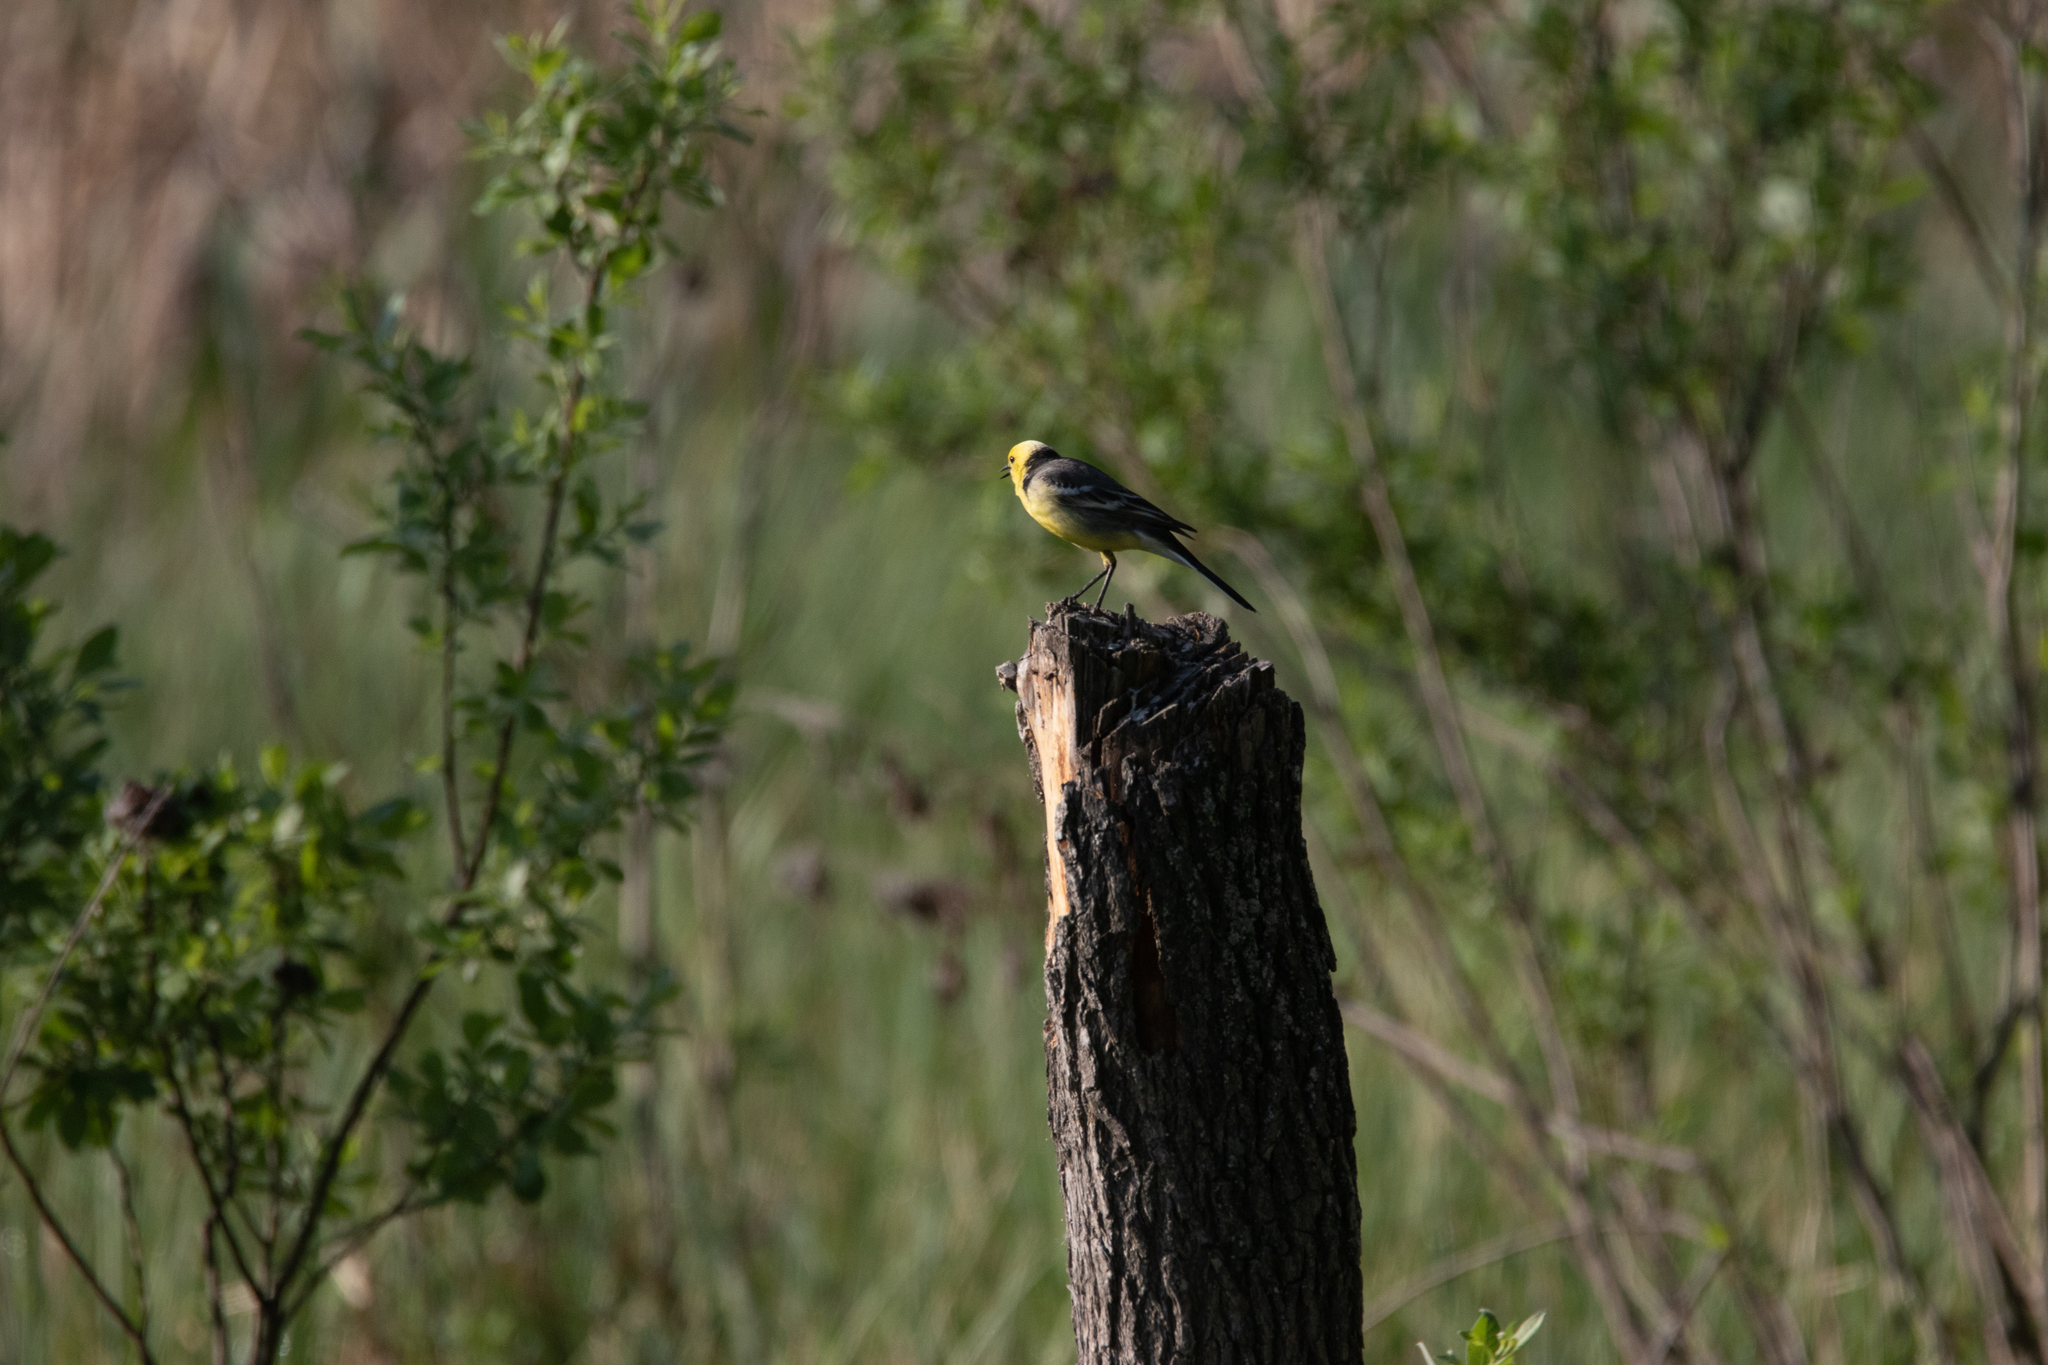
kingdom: Animalia
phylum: Chordata
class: Aves
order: Passeriformes
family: Motacillidae
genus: Motacilla
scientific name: Motacilla citreola
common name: Citrine wagtail
